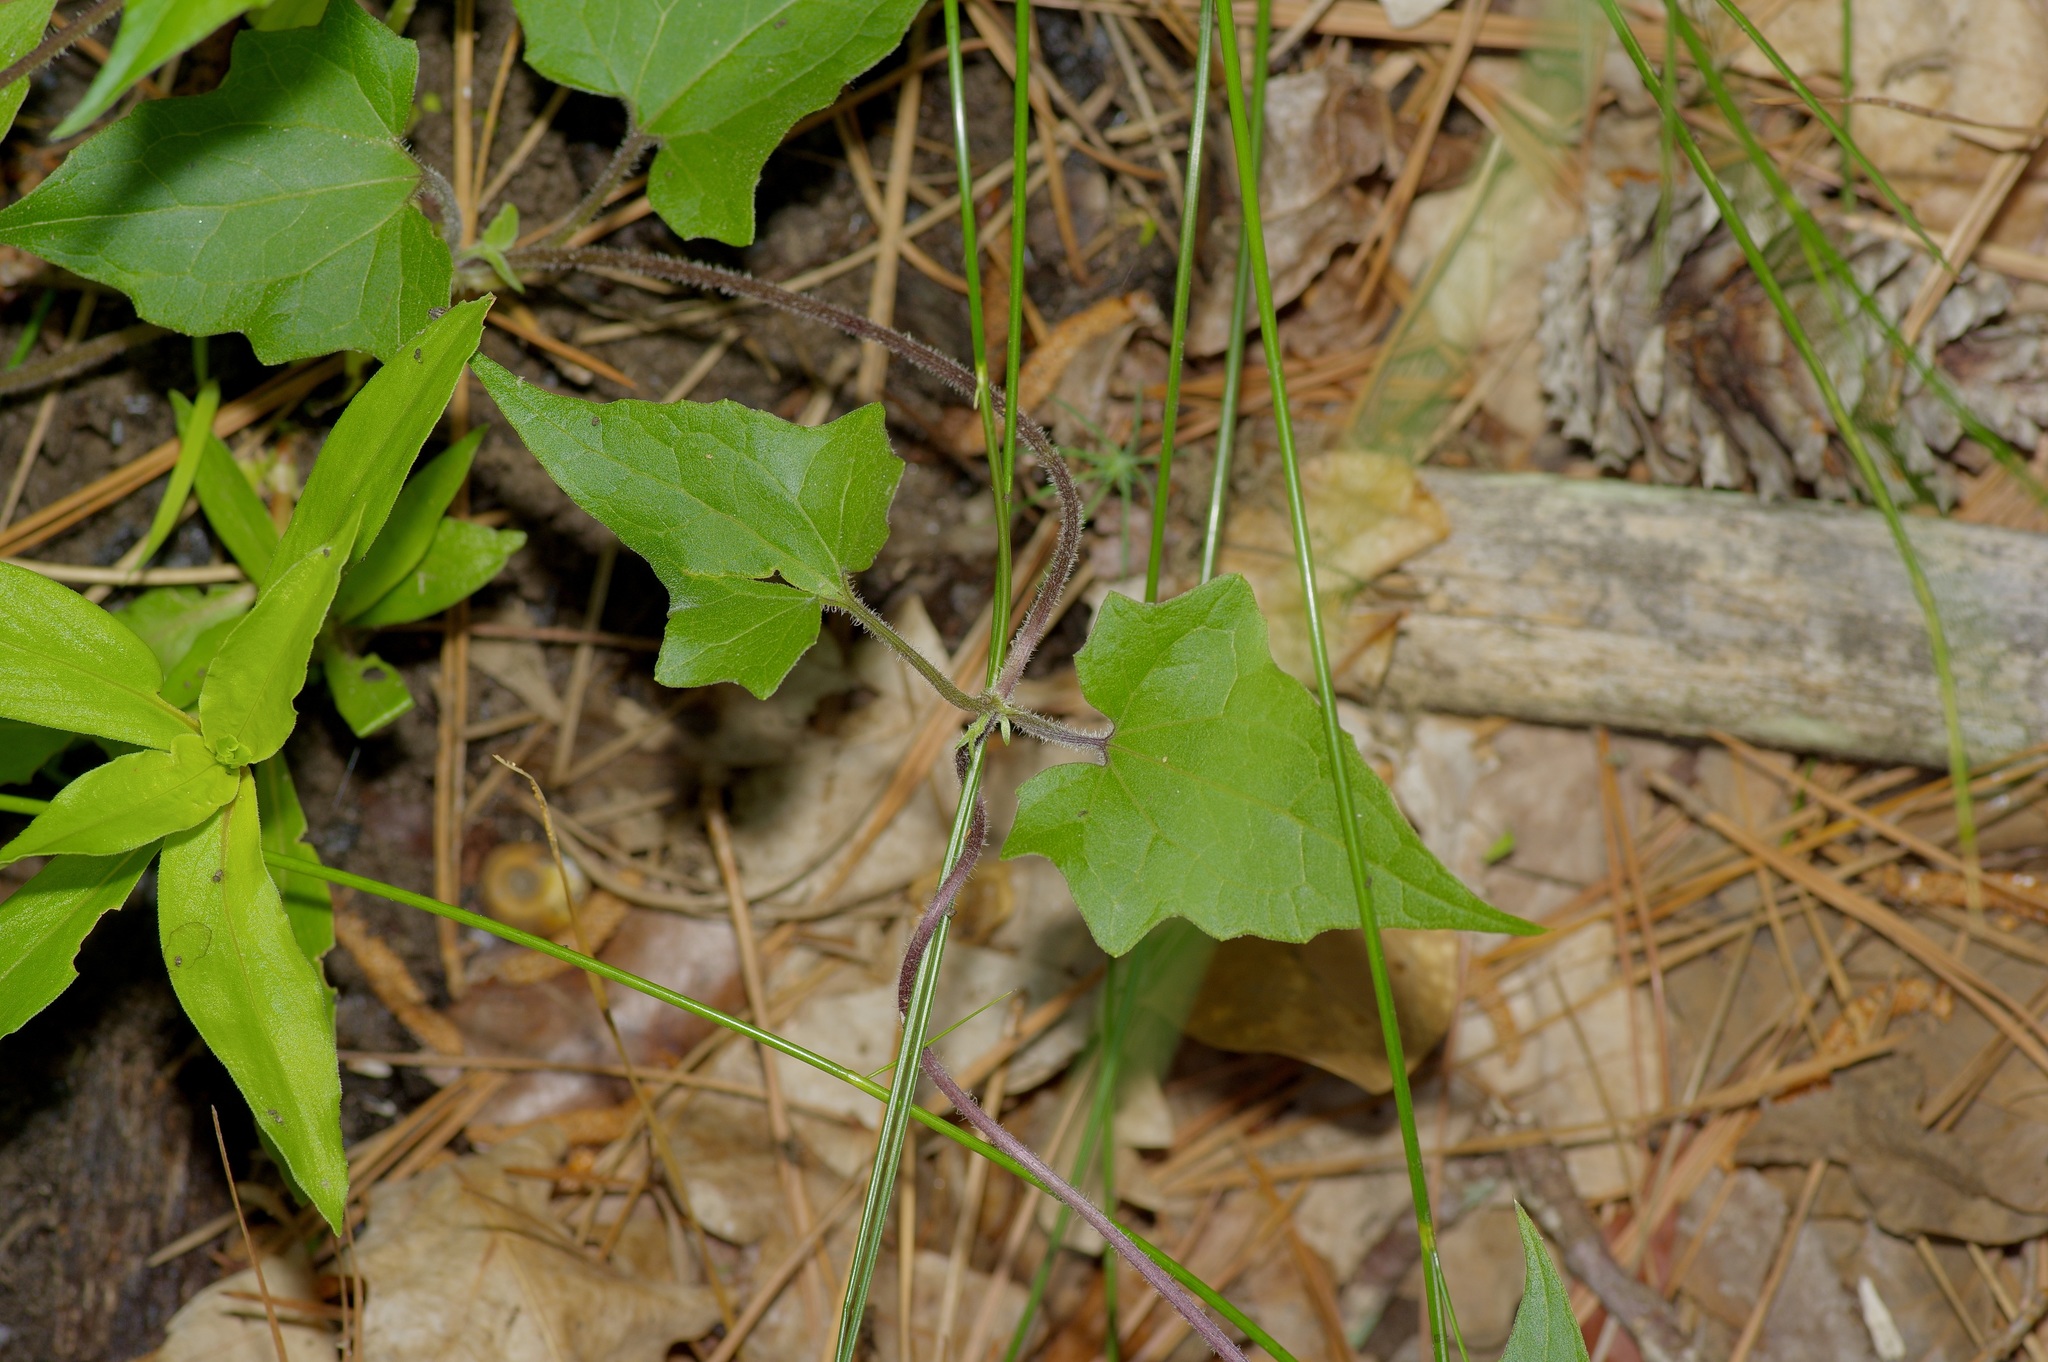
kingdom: Plantae
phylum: Tracheophyta
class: Magnoliopsida
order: Asterales
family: Asteraceae
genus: Mikania
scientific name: Mikania scandens
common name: Climbing hempvine
